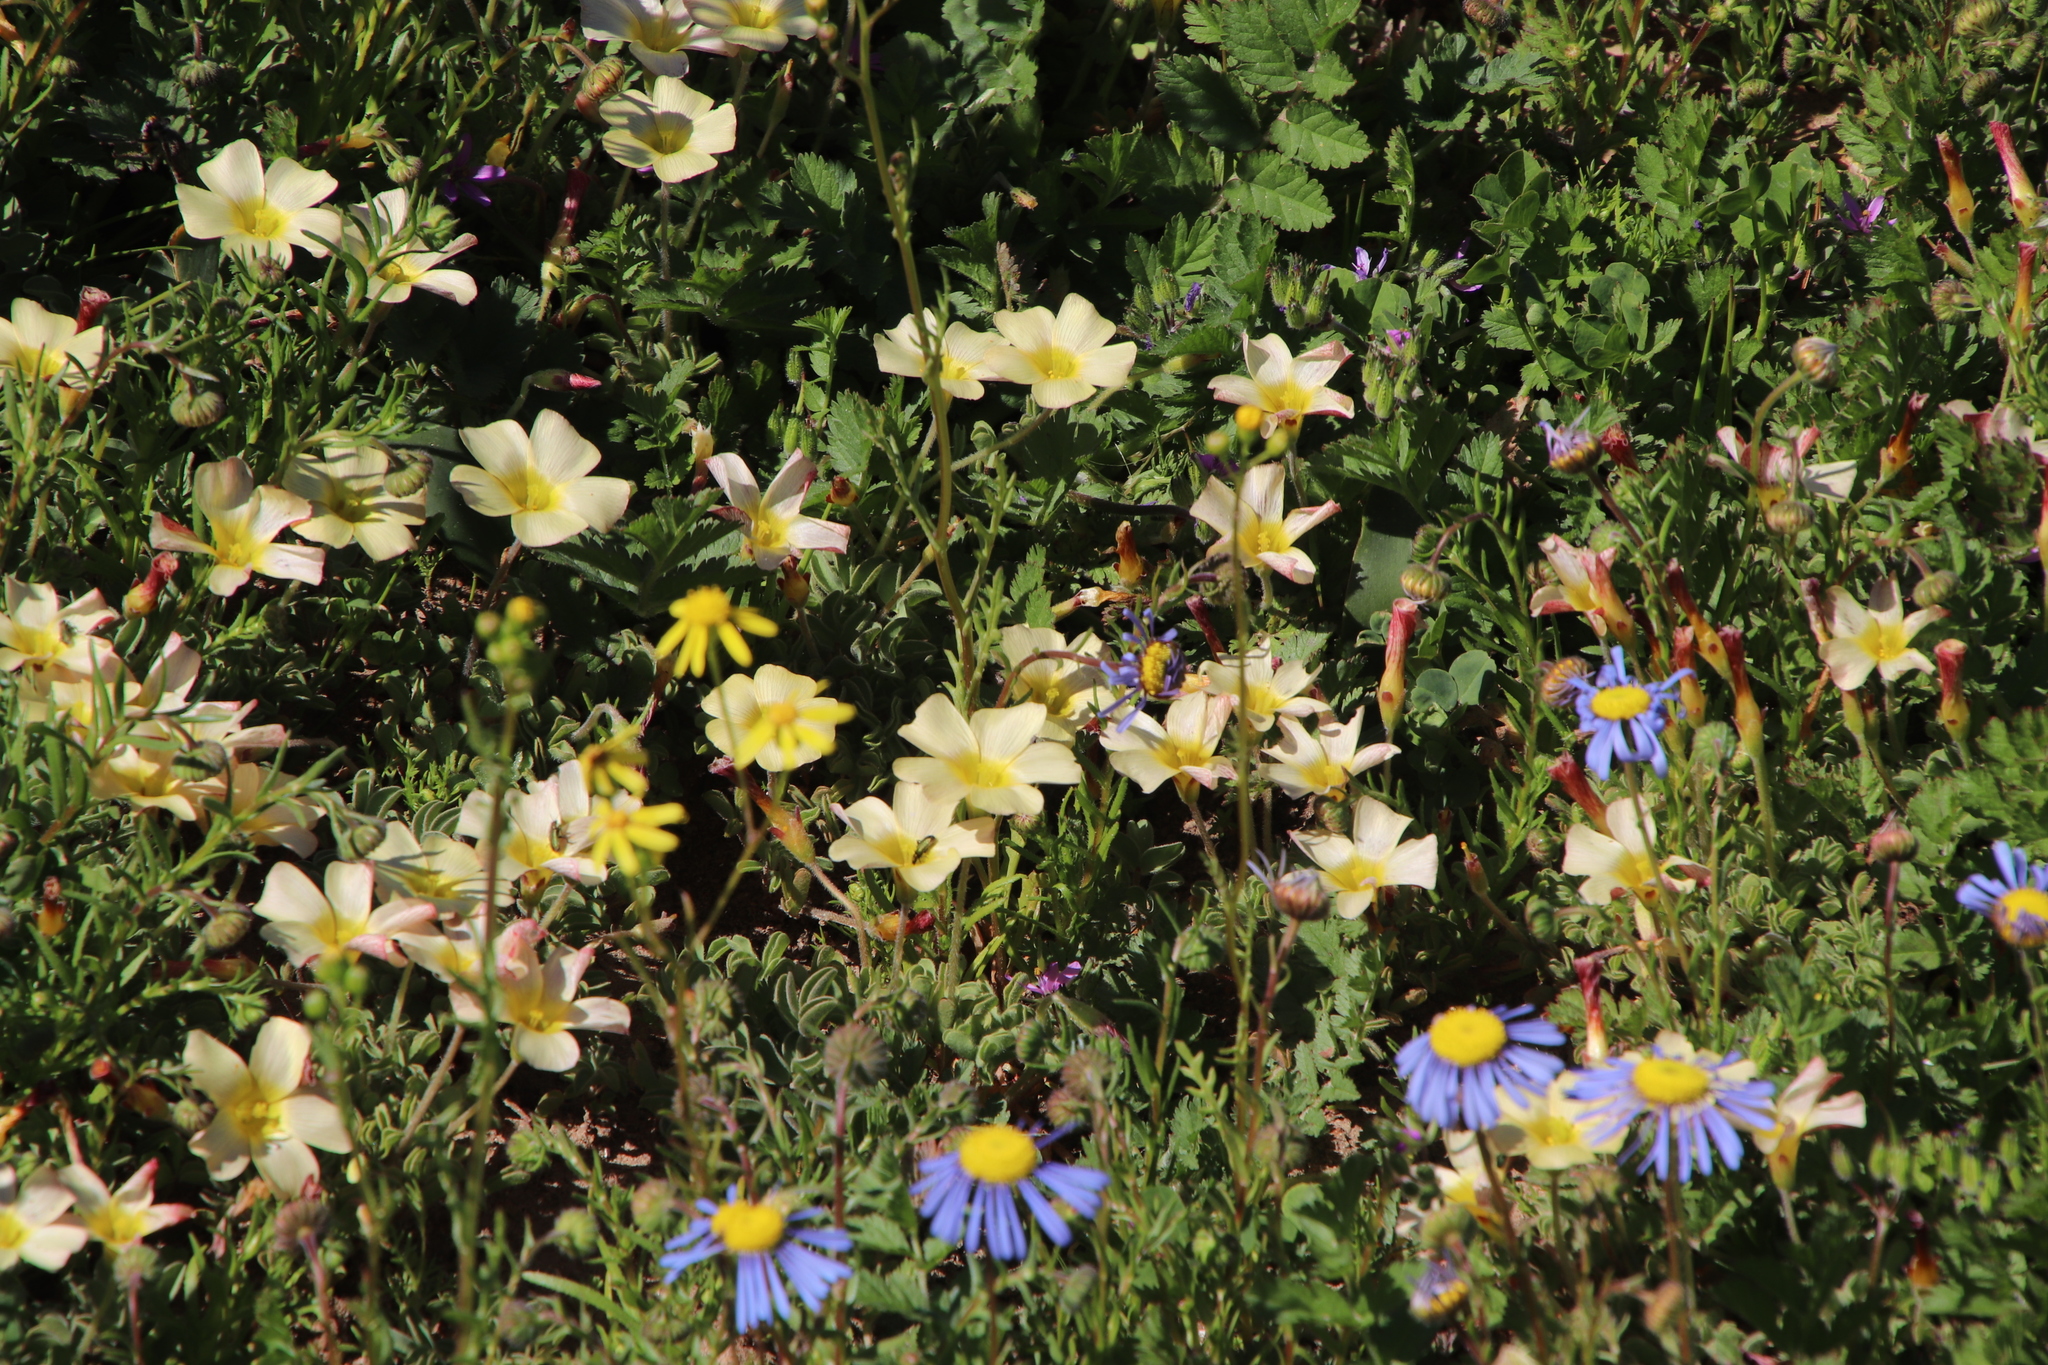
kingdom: Plantae
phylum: Tracheophyta
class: Magnoliopsida
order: Oxalidales
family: Oxalidaceae
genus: Oxalis
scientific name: Oxalis obtusa
